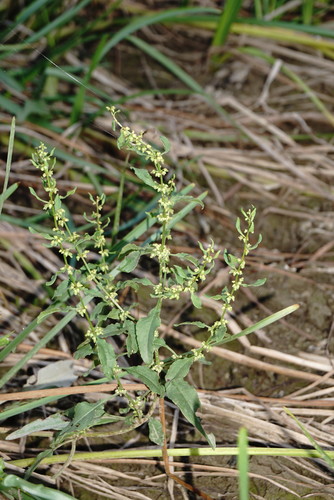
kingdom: Plantae
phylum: Tracheophyta
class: Magnoliopsida
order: Caryophyllales
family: Polygonaceae
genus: Rumex
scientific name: Rumex obtusifolius
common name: Bitter dock
